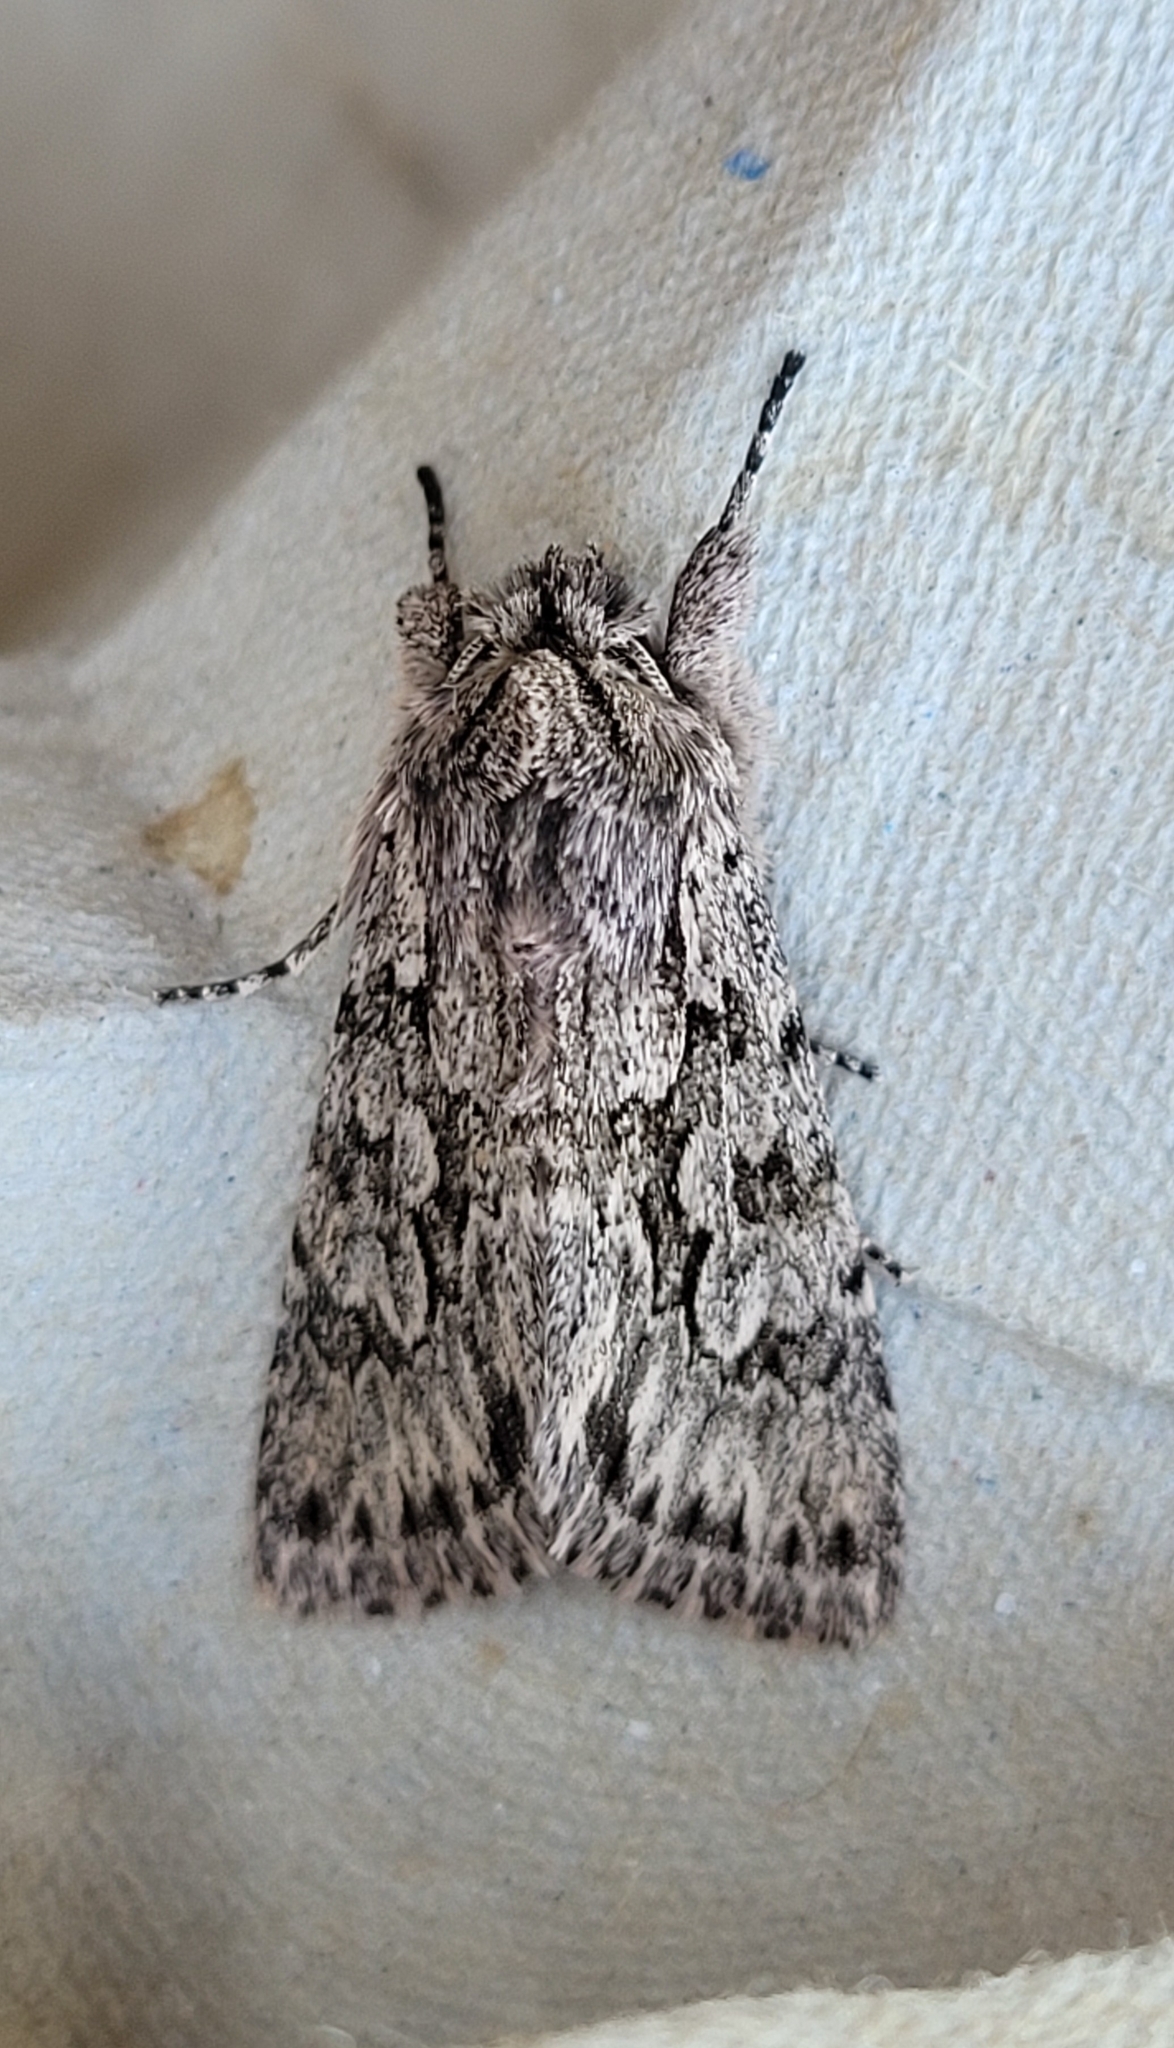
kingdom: Animalia
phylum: Arthropoda
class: Insecta
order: Lepidoptera
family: Noctuidae
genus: Xylocampa
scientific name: Xylocampa areola
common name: Early grey
